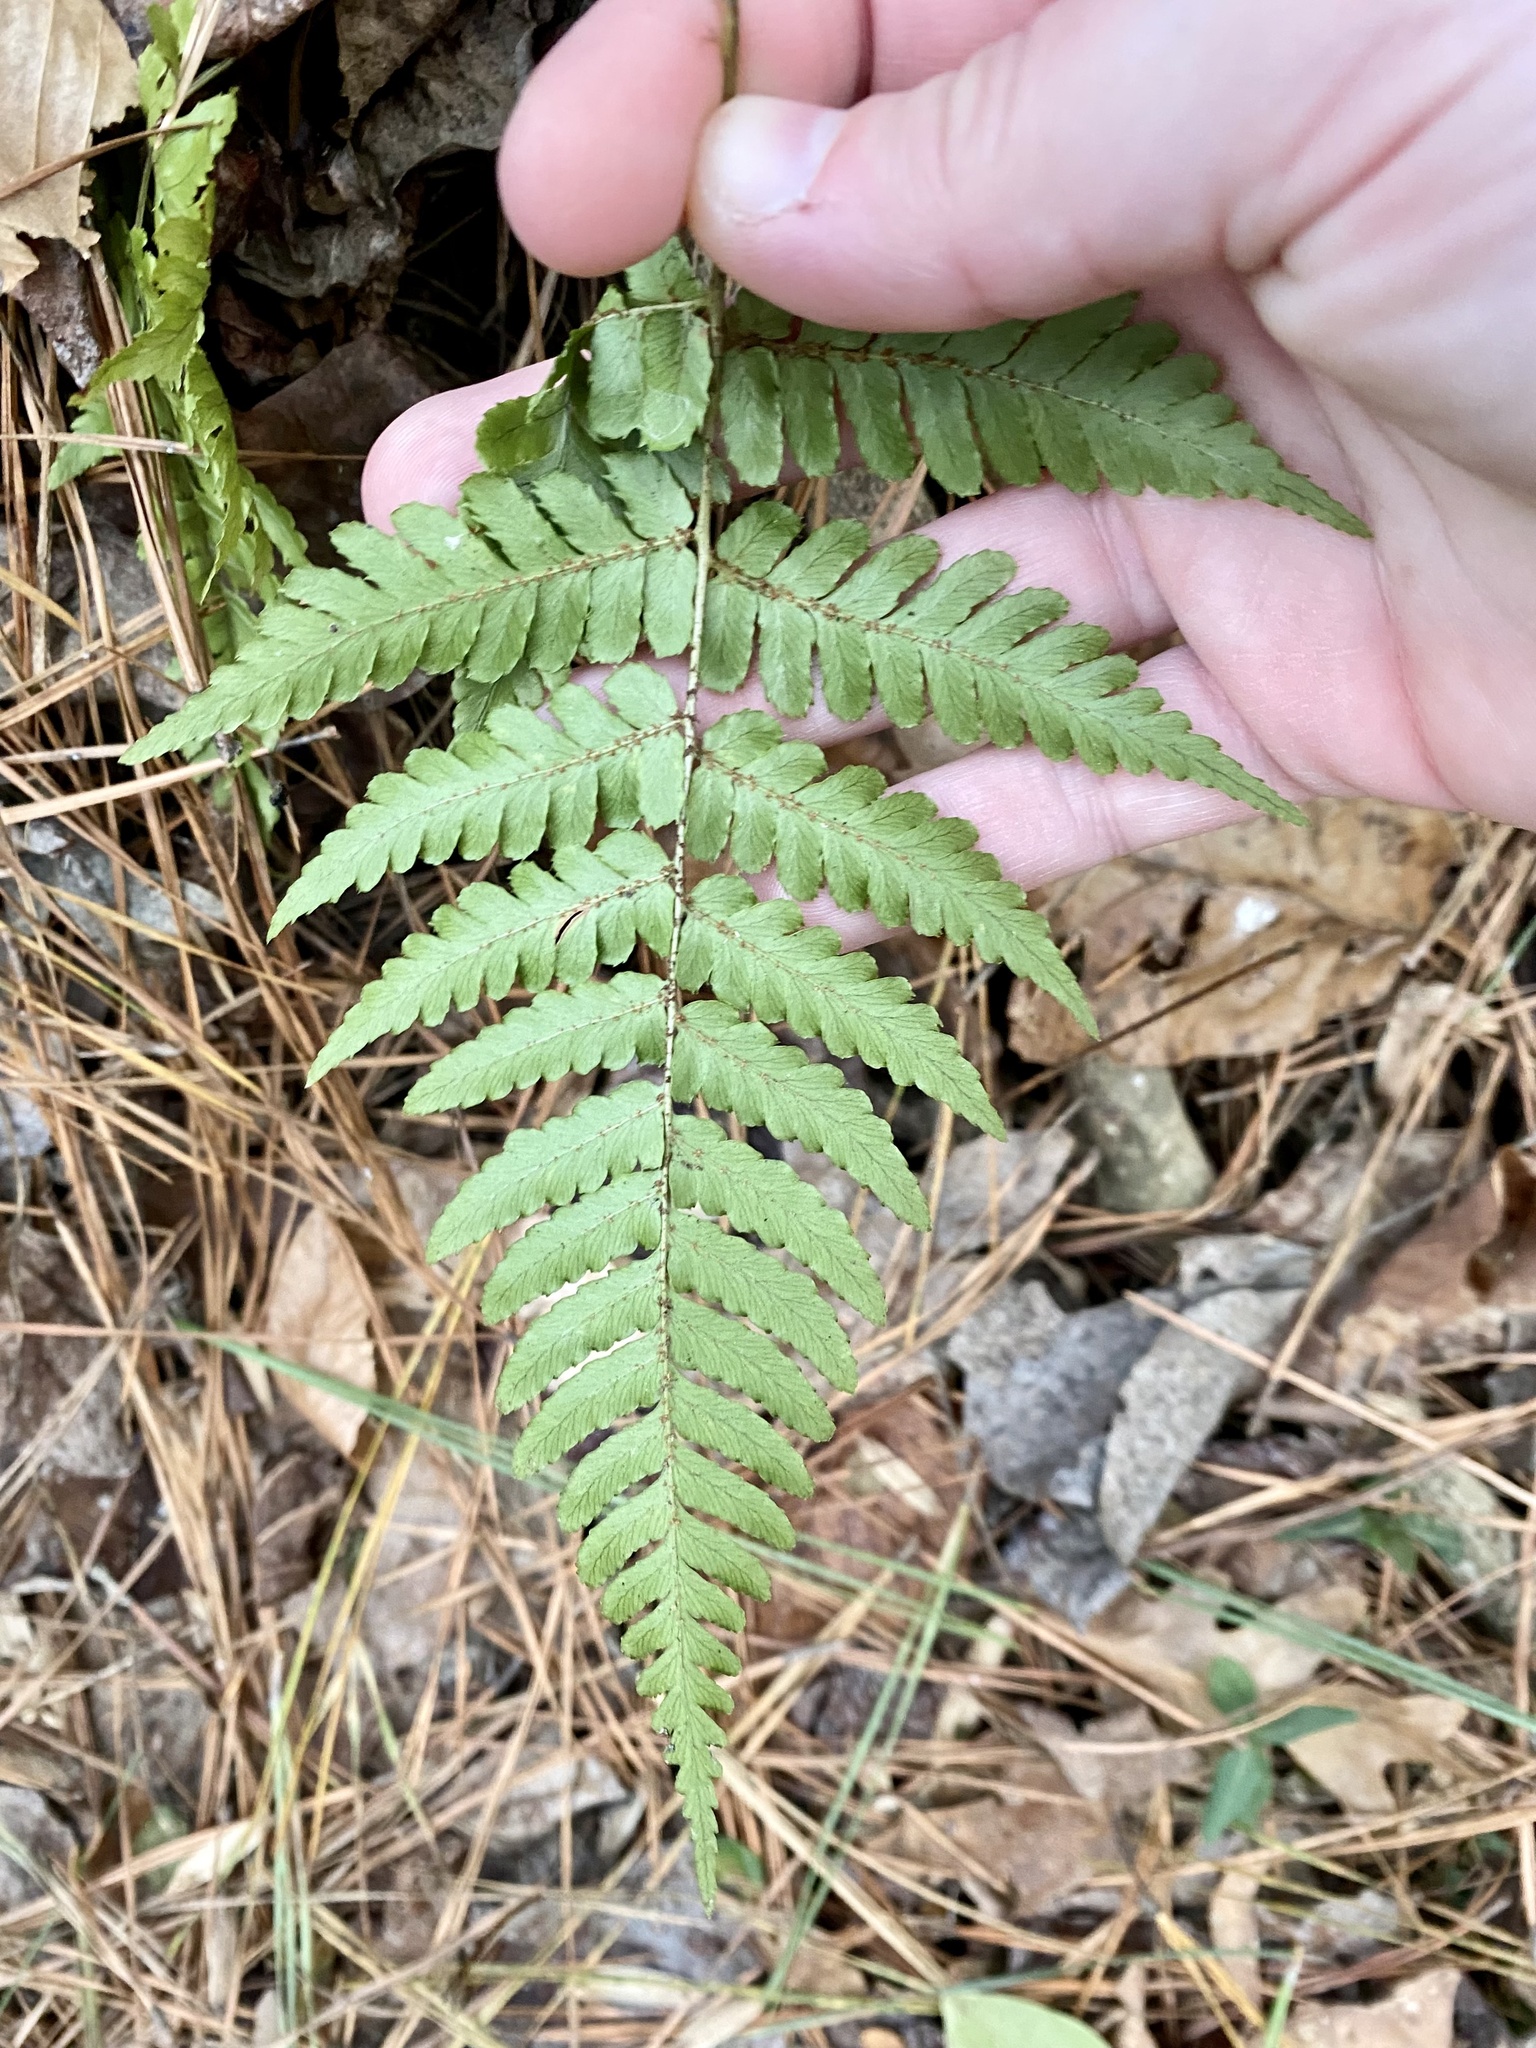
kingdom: Plantae
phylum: Tracheophyta
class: Polypodiopsida
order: Polypodiales
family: Dryopteridaceae
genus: Dryopteris
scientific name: Dryopteris erythrosora
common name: Autumn fern
